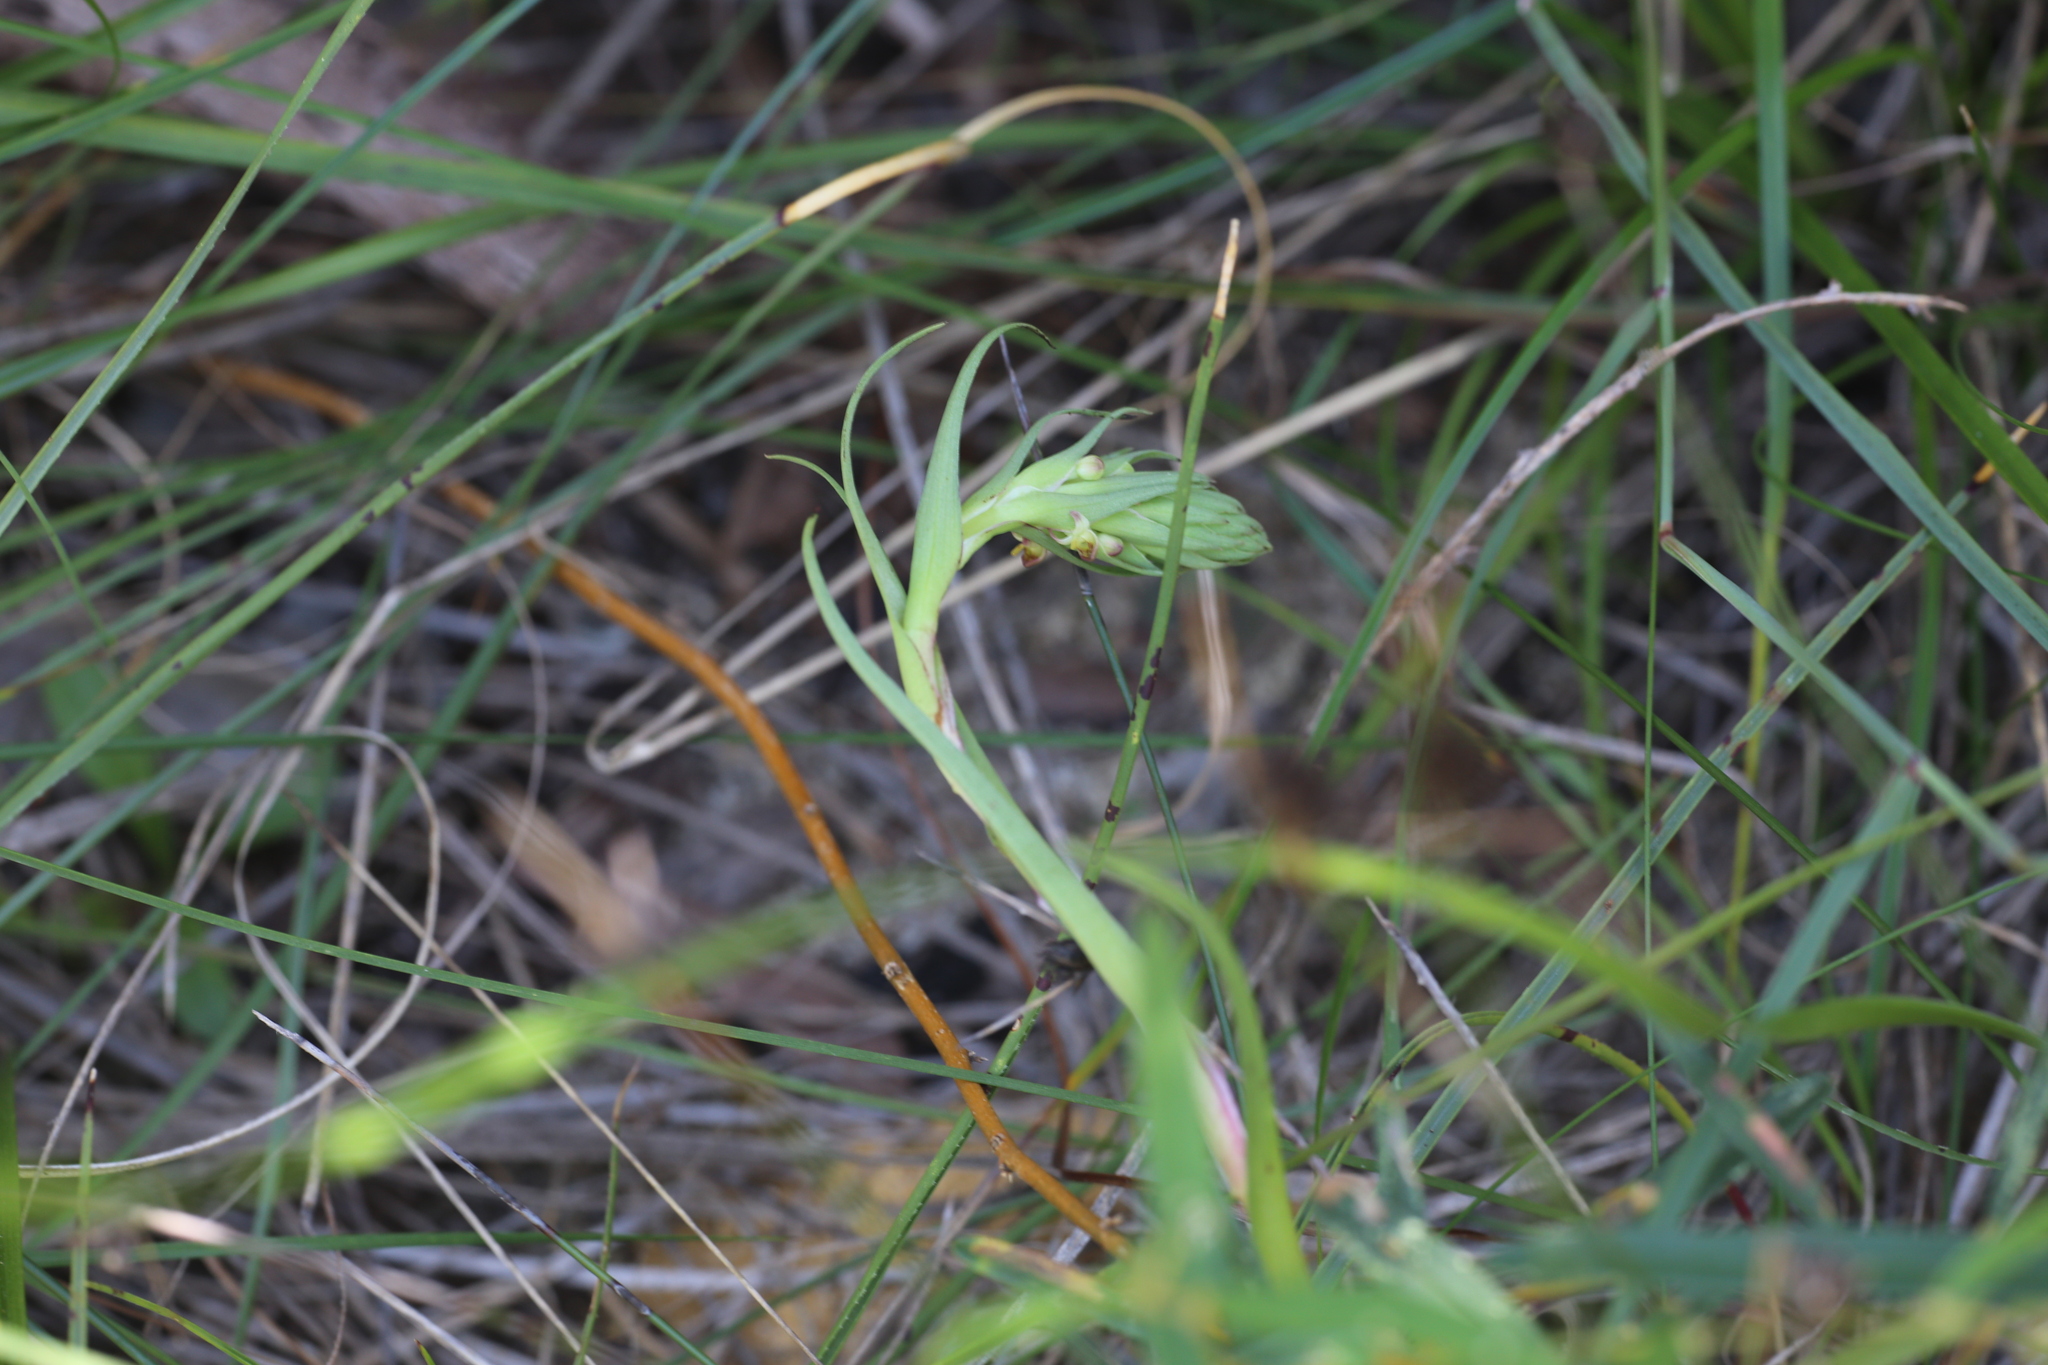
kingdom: Plantae
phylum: Tracheophyta
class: Liliopsida
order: Asparagales
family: Orchidaceae
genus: Disa
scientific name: Disa bracteata
